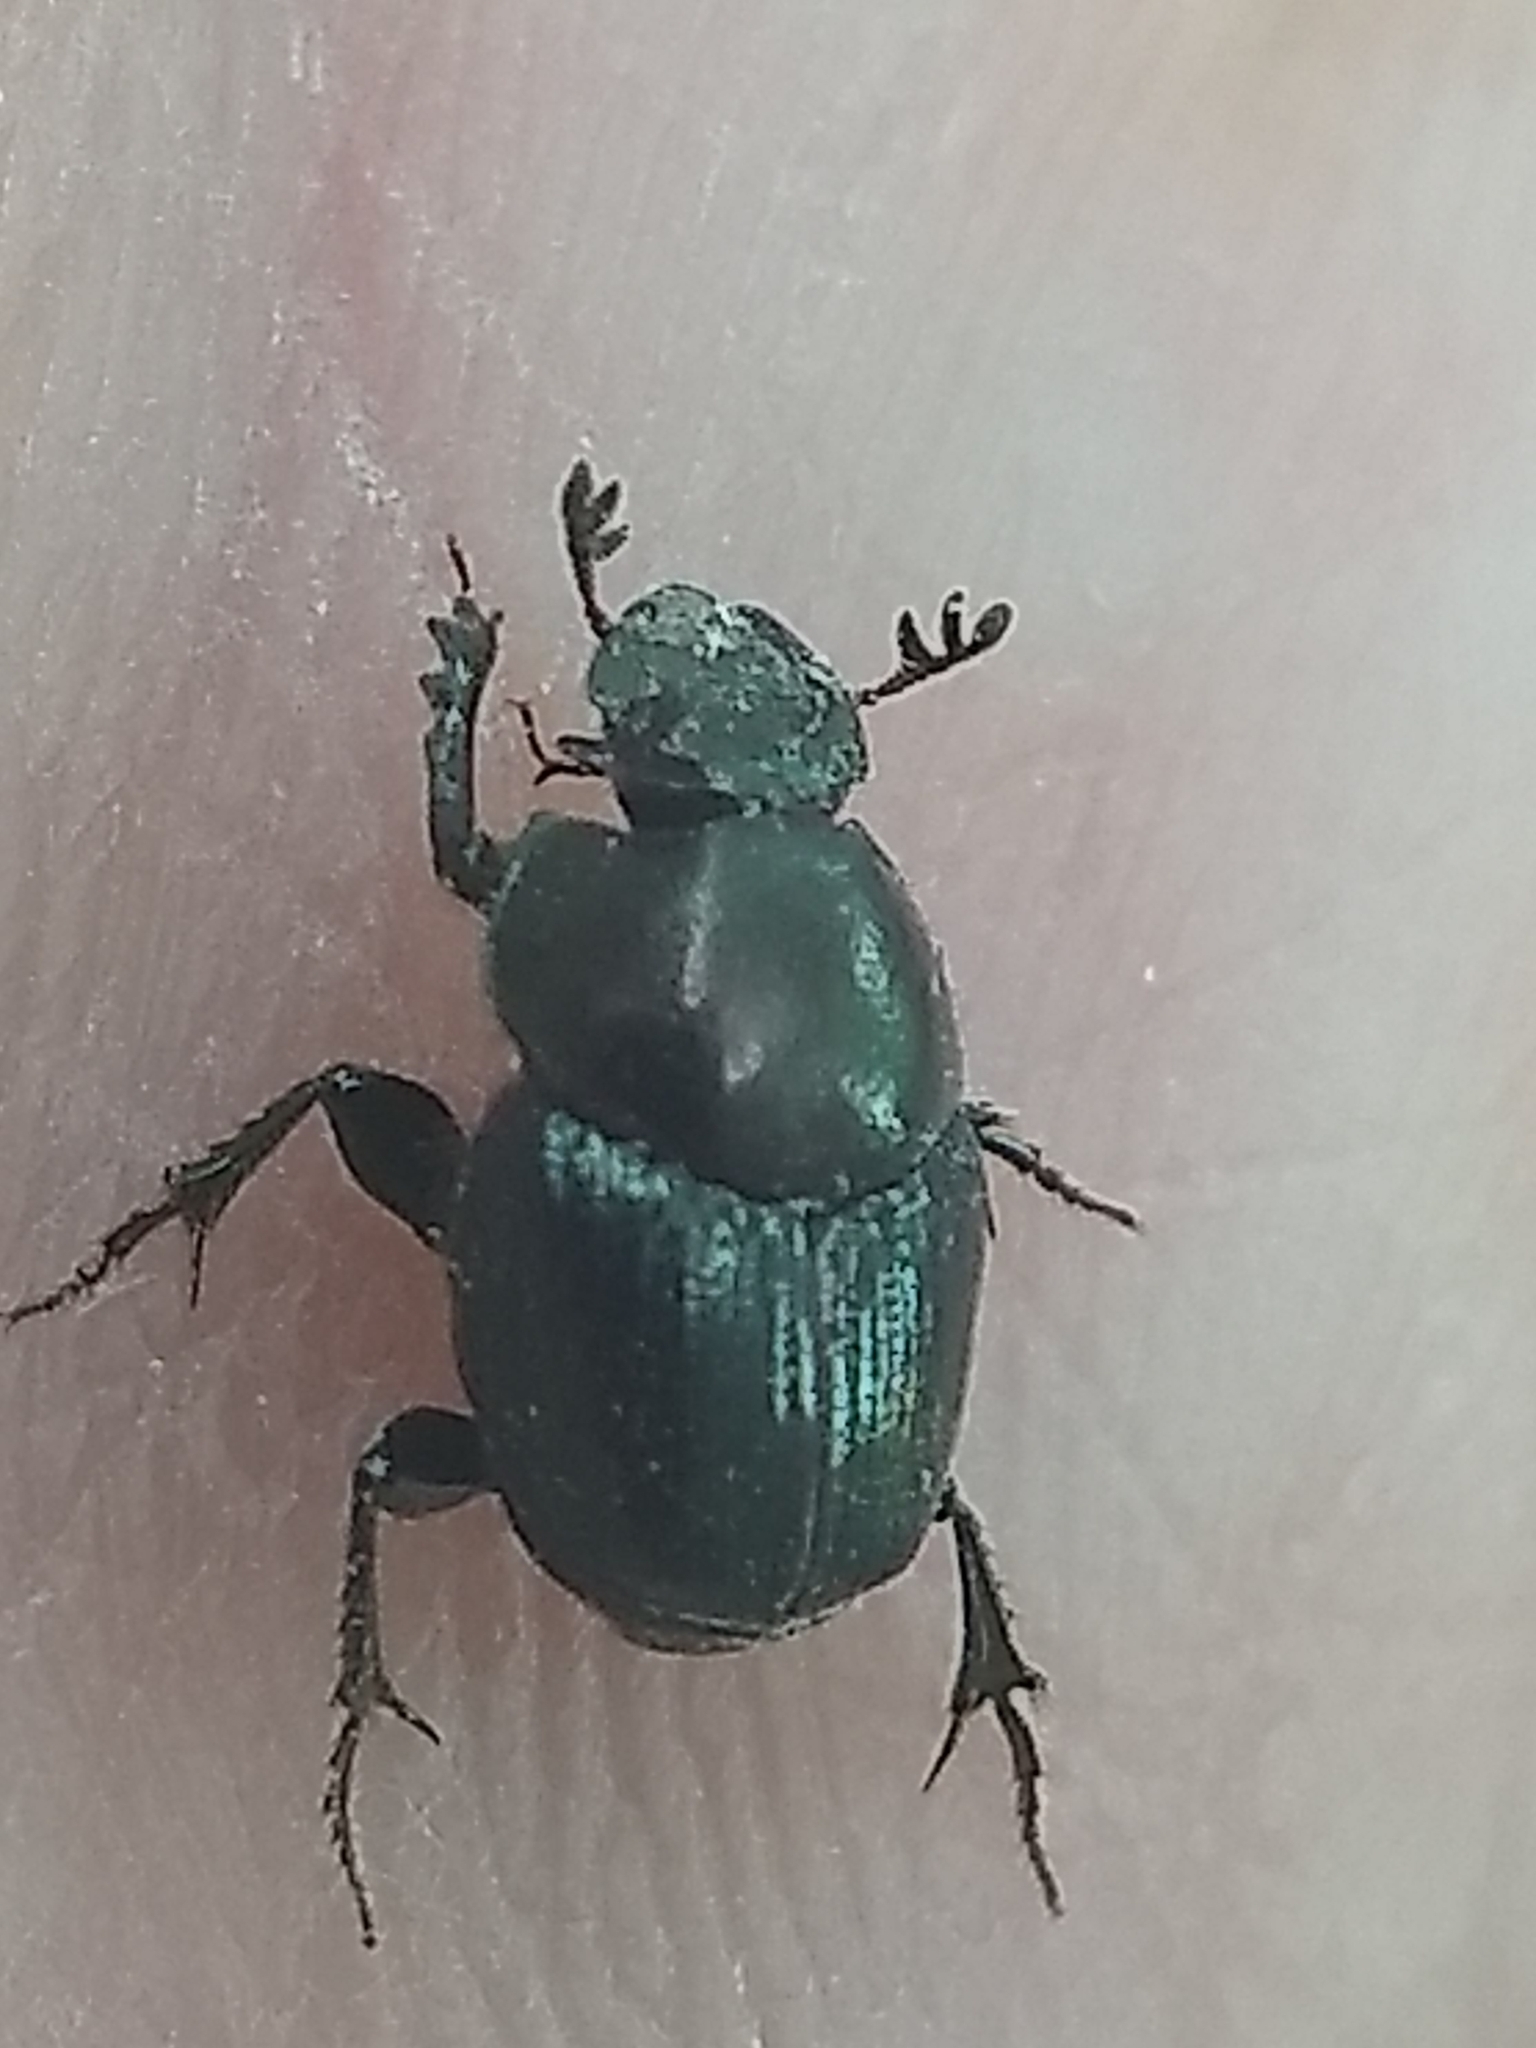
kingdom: Animalia
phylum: Arthropoda
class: Insecta
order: Coleoptera
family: Scarabaeidae
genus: Onthophagus
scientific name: Onthophagus orpheus
